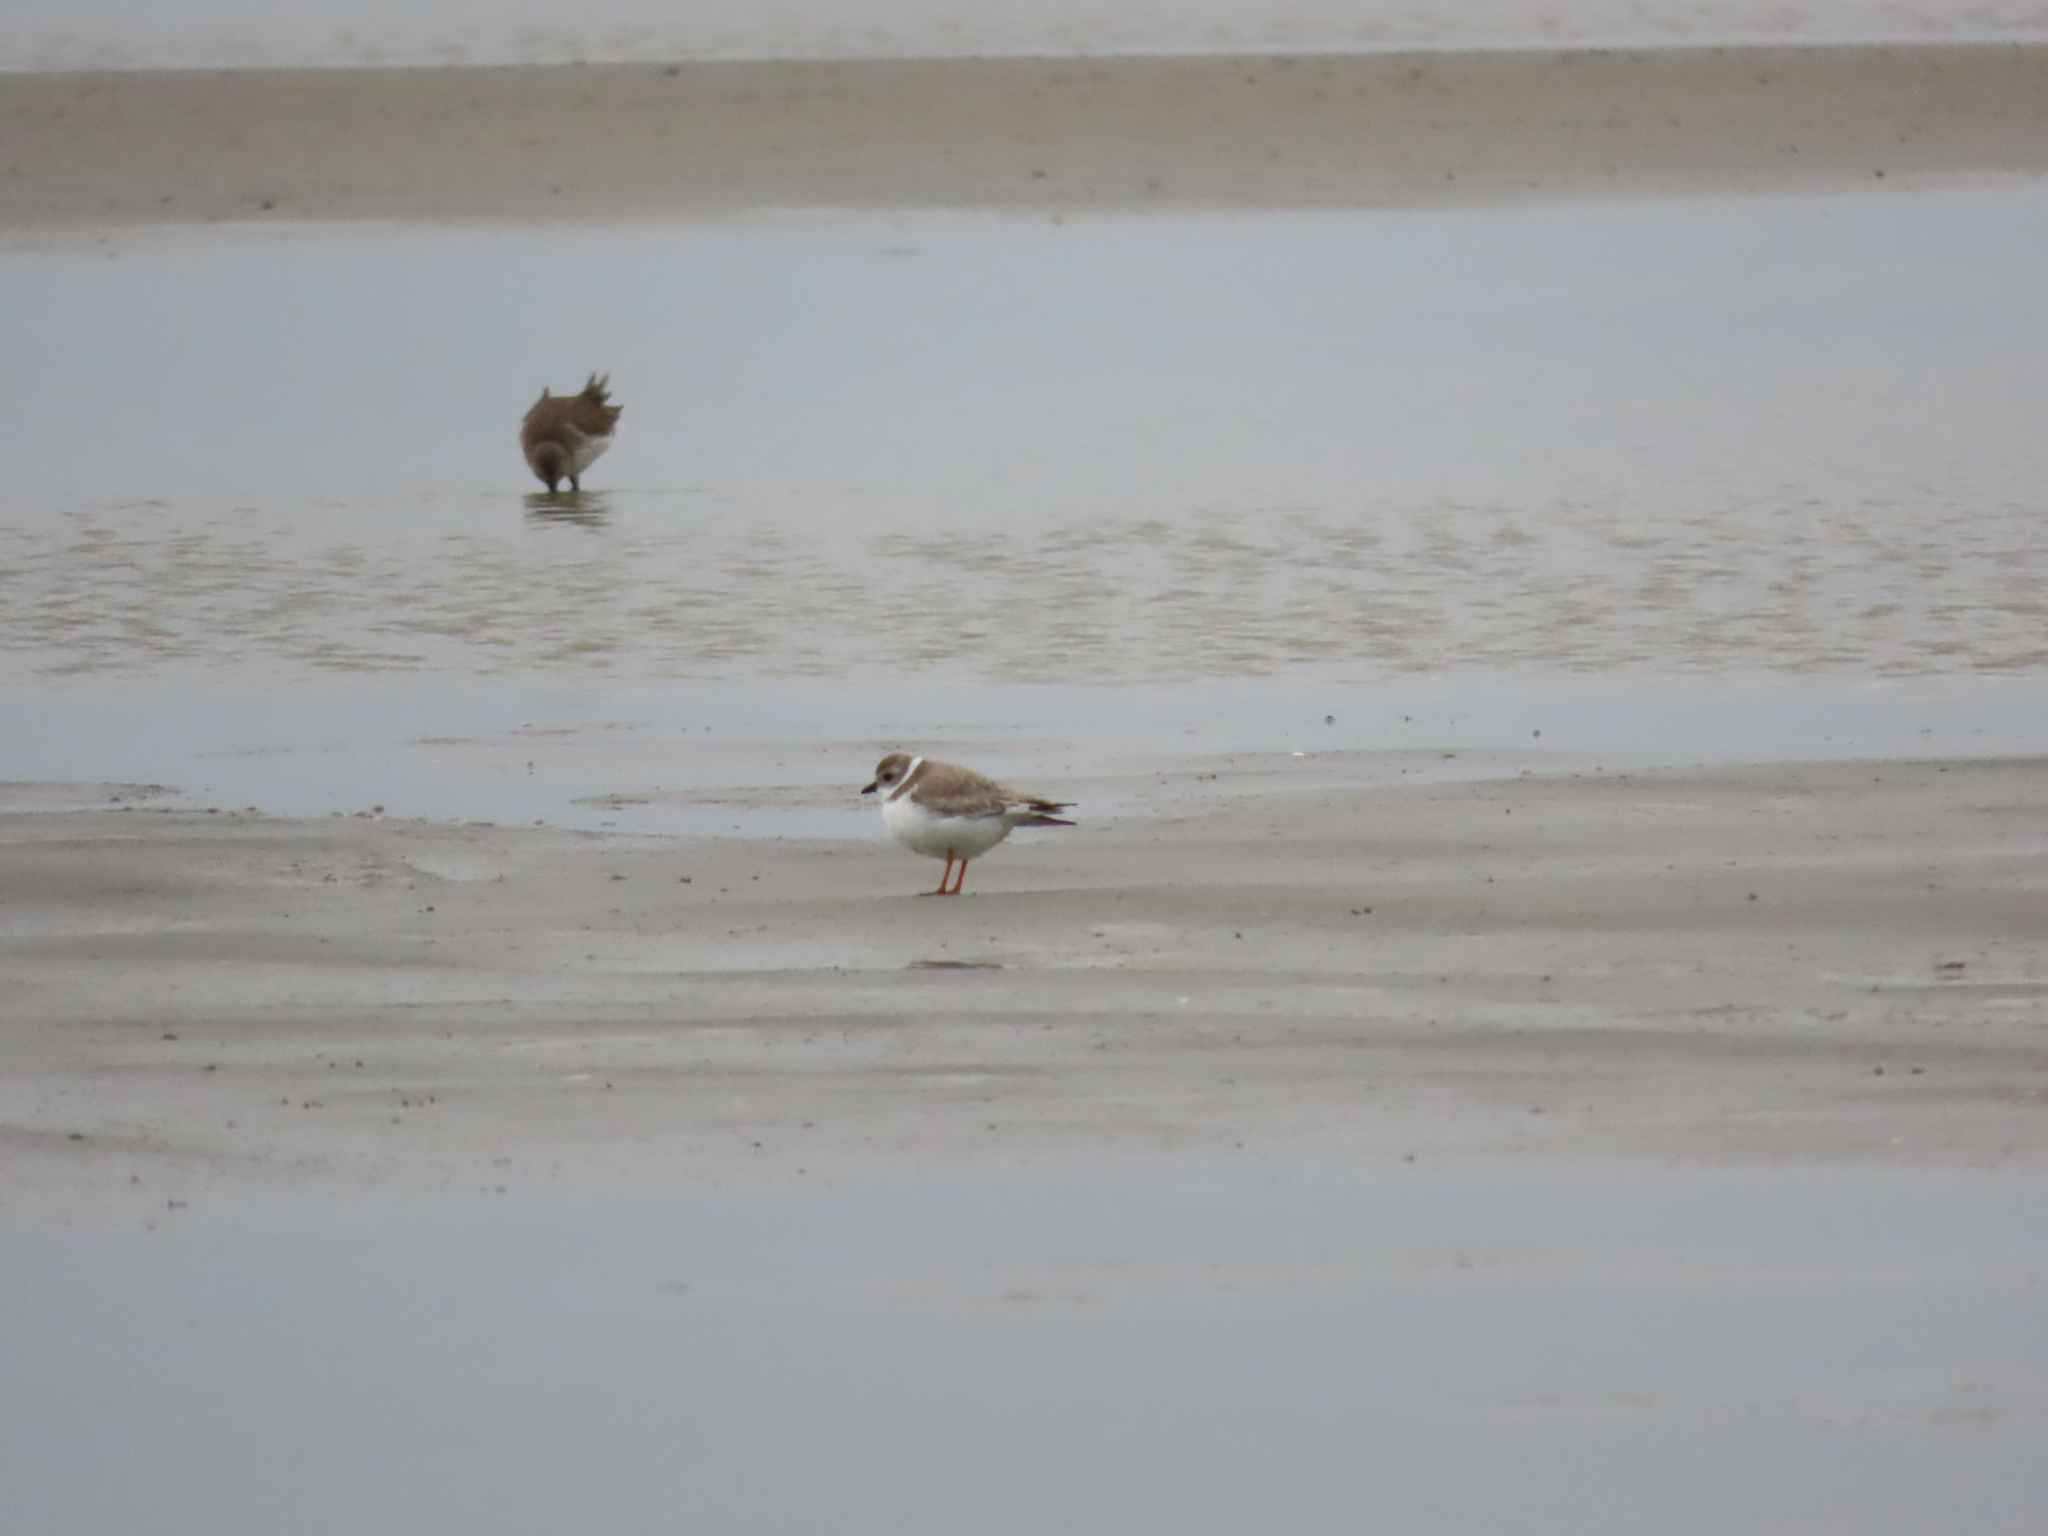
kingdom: Animalia
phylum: Chordata
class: Aves
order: Charadriiformes
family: Charadriidae
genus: Charadrius
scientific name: Charadrius melodus
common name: Piping plover
